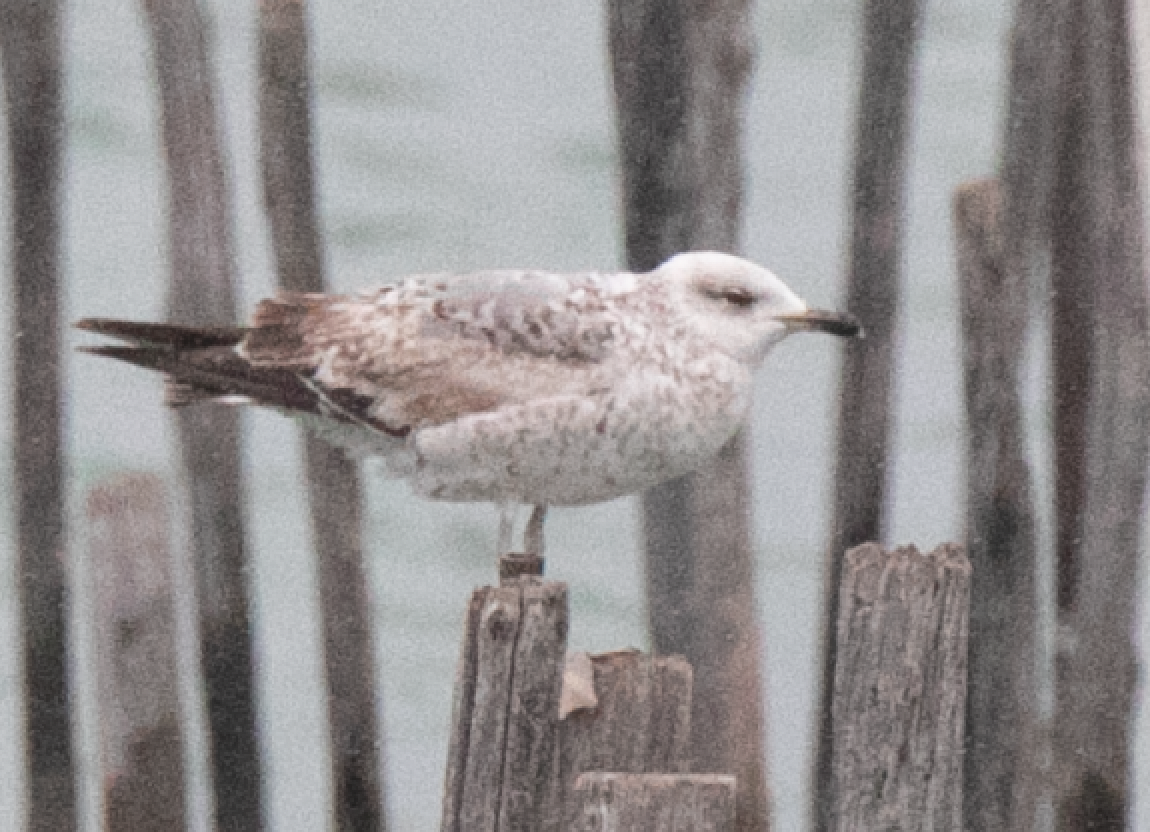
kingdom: Animalia
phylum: Chordata
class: Aves
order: Charadriiformes
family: Laridae
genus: Larus
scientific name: Larus michahellis
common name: Yellow-legged gull
